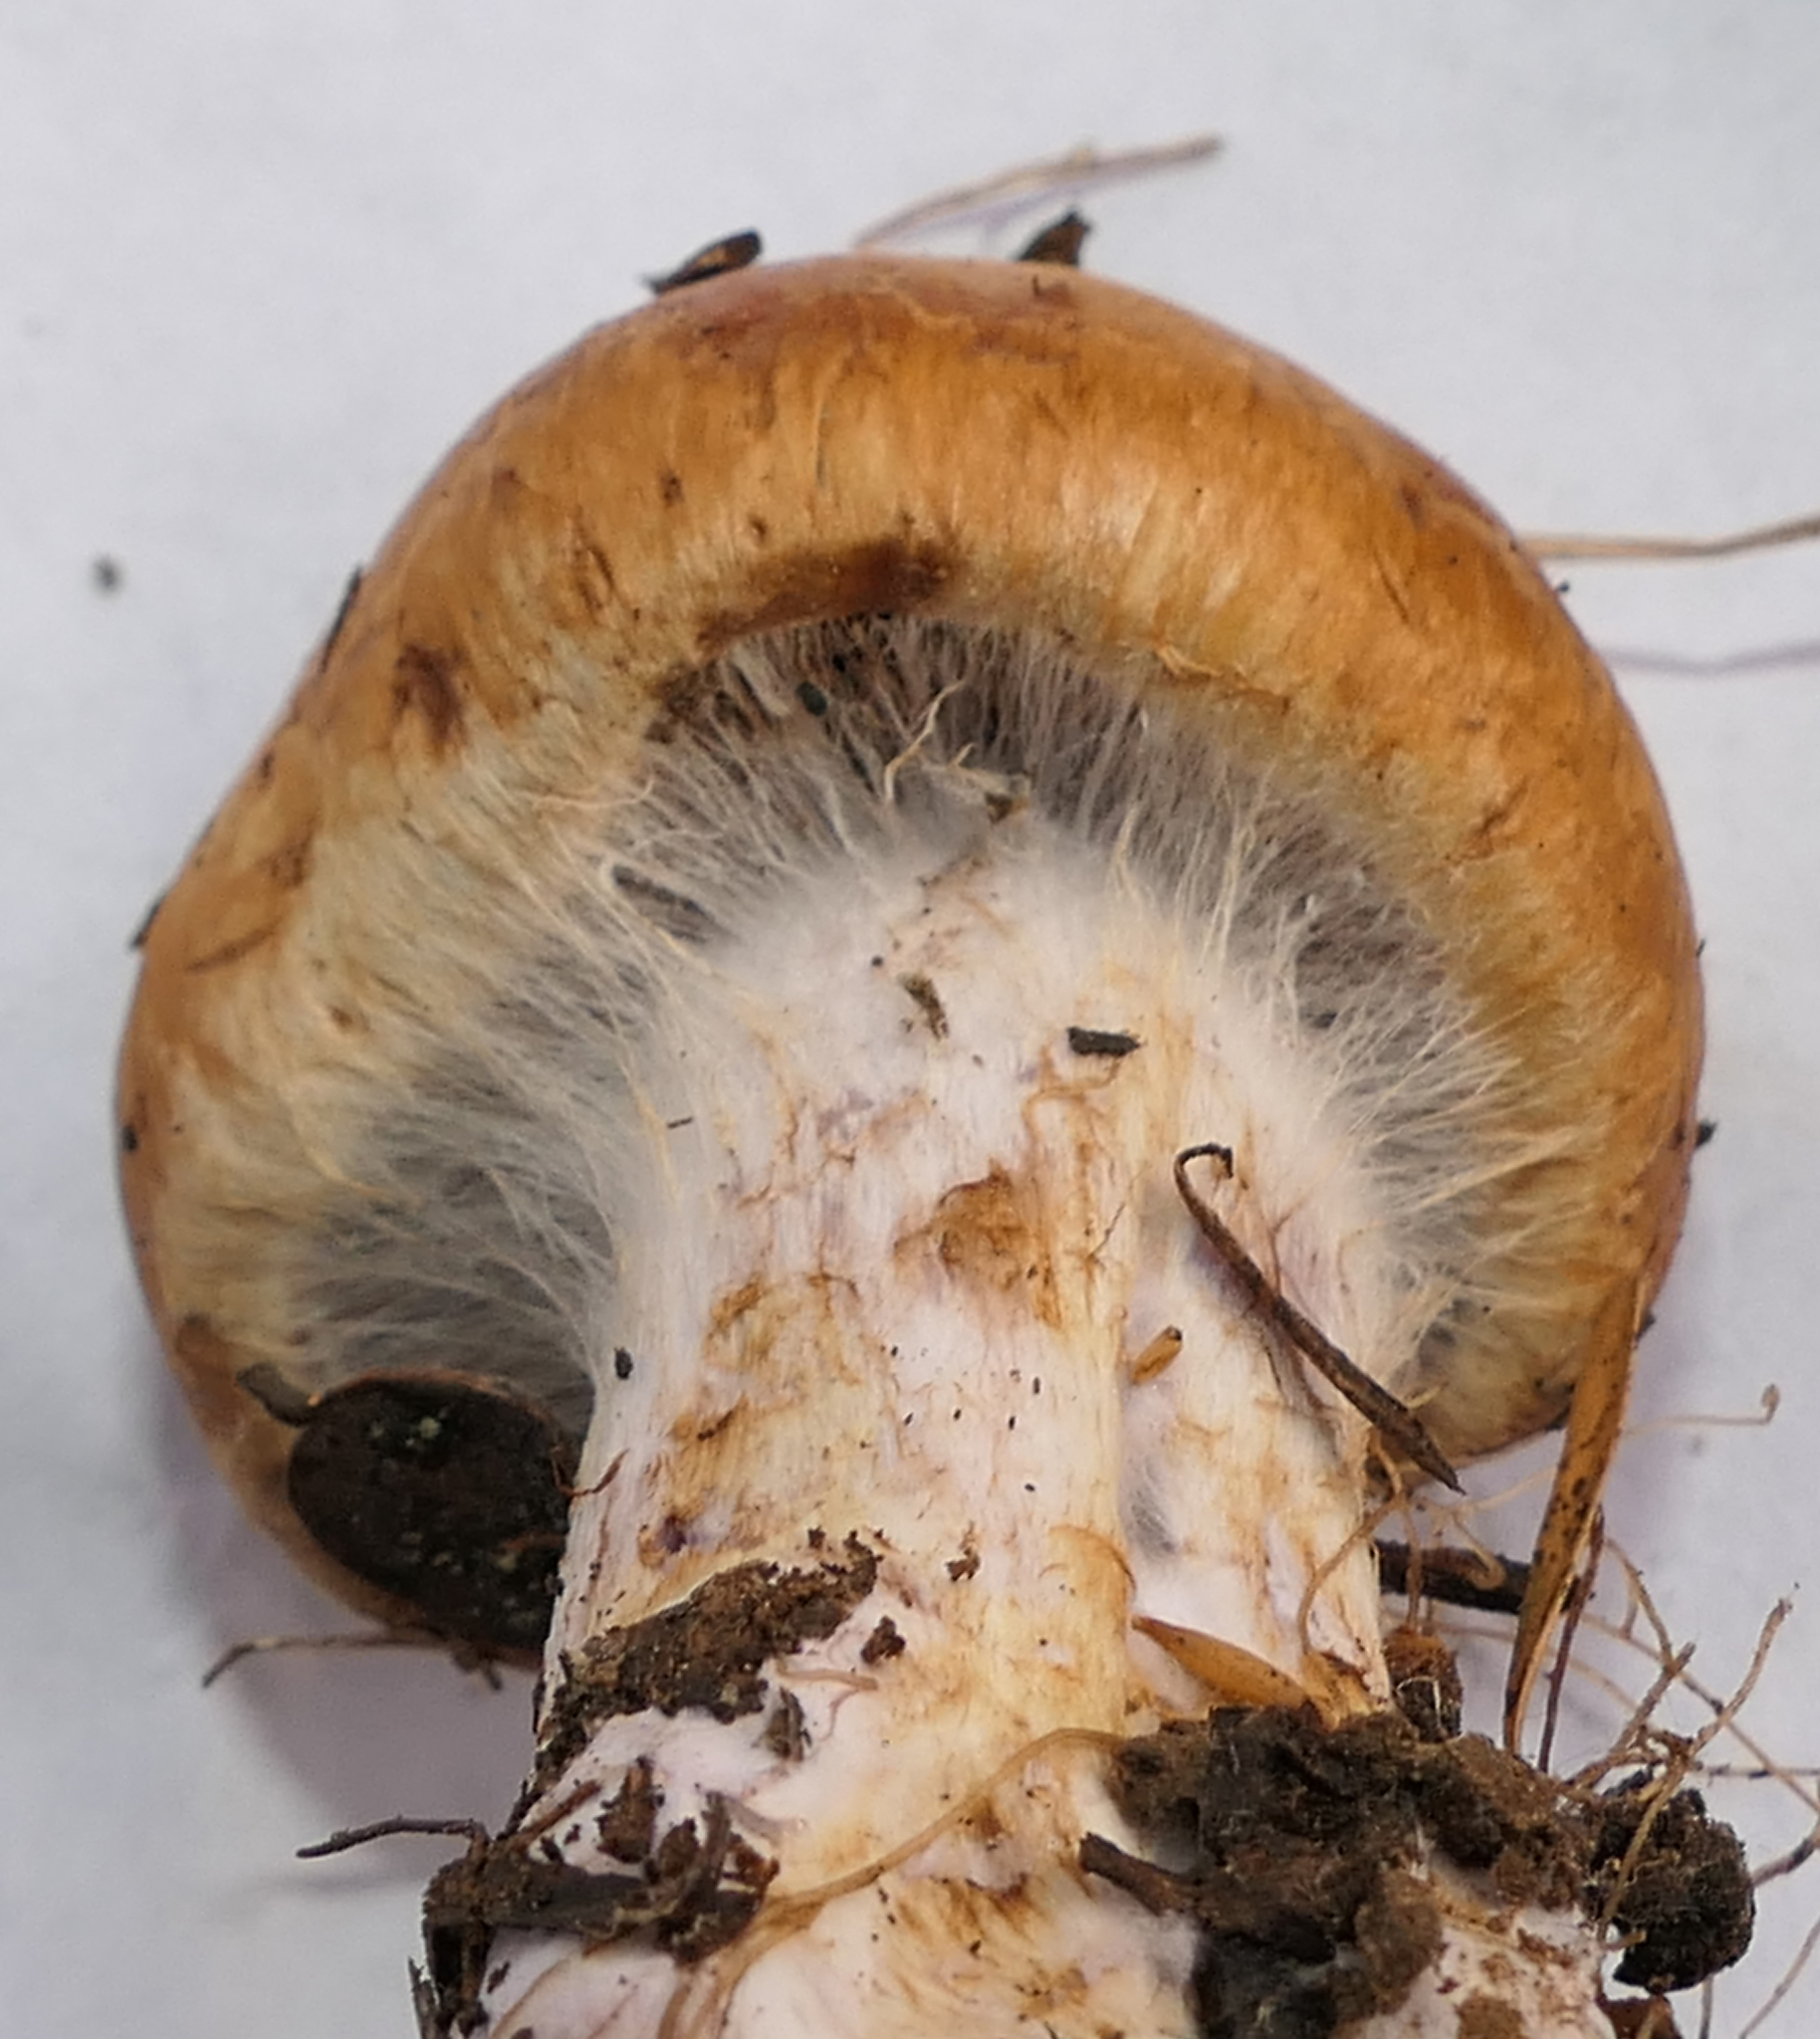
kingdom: Fungi
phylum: Basidiomycota
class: Agaricomycetes
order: Agaricales
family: Cortinariaceae
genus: Phlegmacium
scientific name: Phlegmacium
